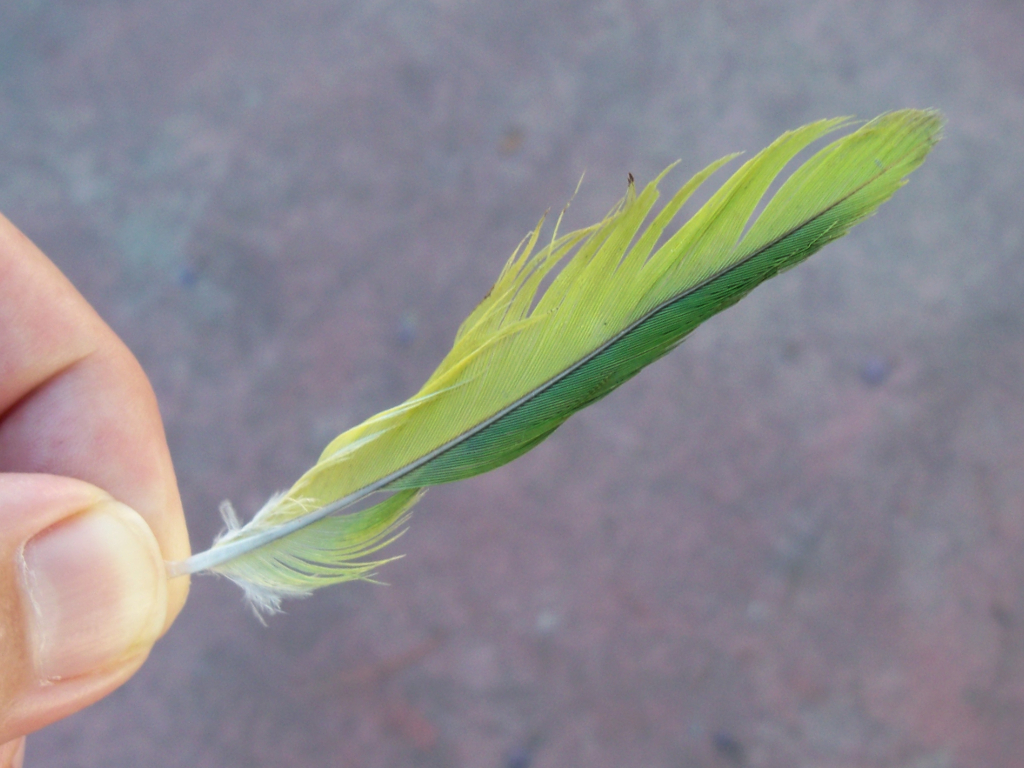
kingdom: Animalia
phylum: Chordata
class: Aves
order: Psittaciformes
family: Psittacidae
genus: Myiopsitta
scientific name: Myiopsitta monachus
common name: Monk parakeet
